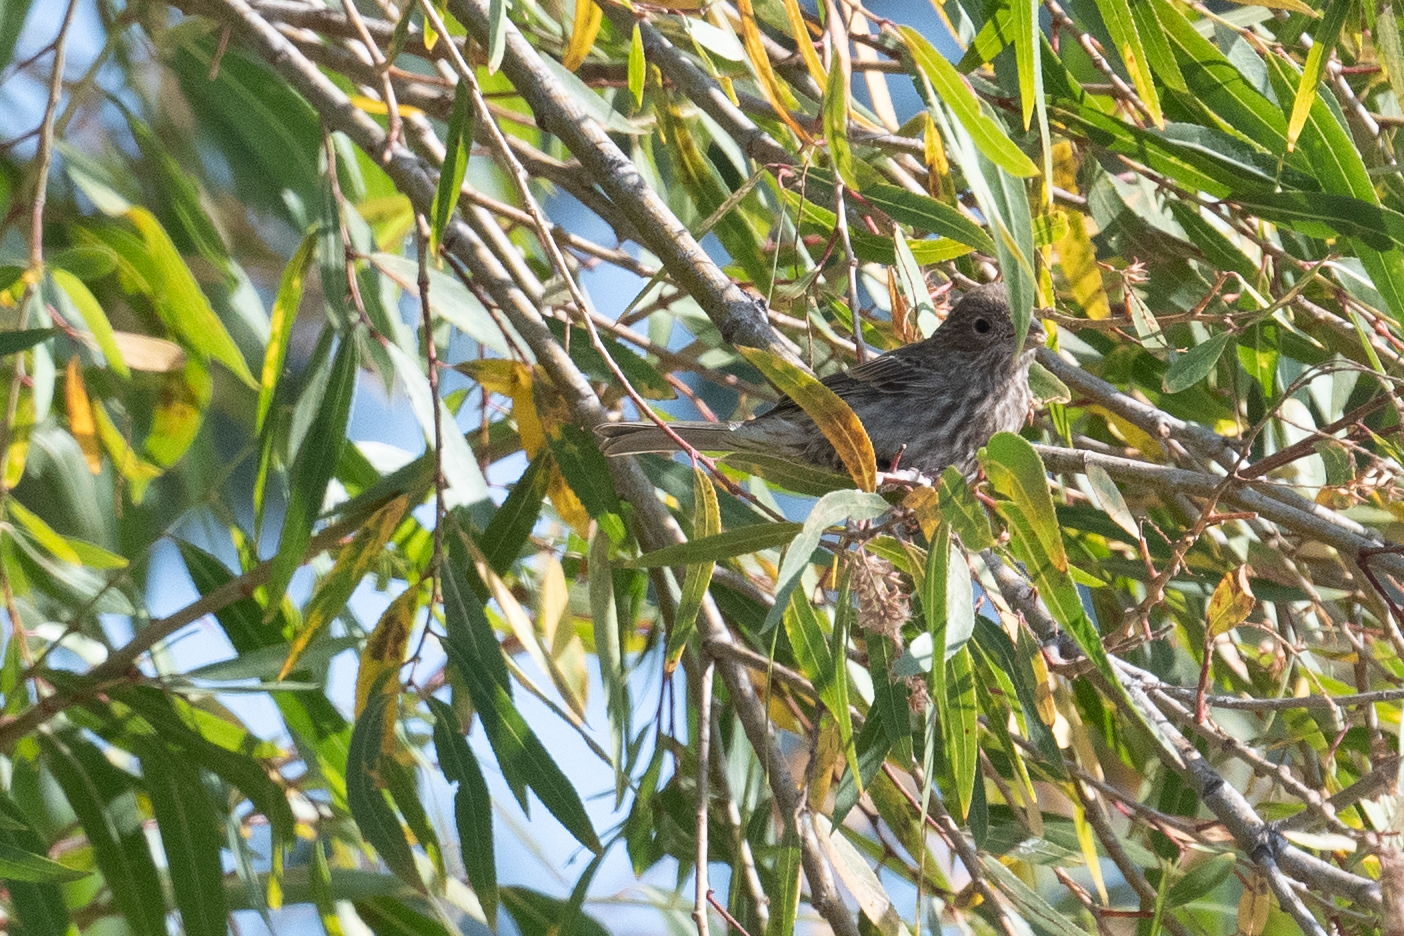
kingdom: Animalia
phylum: Chordata
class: Aves
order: Passeriformes
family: Fringillidae
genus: Haemorhous
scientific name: Haemorhous mexicanus
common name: House finch
